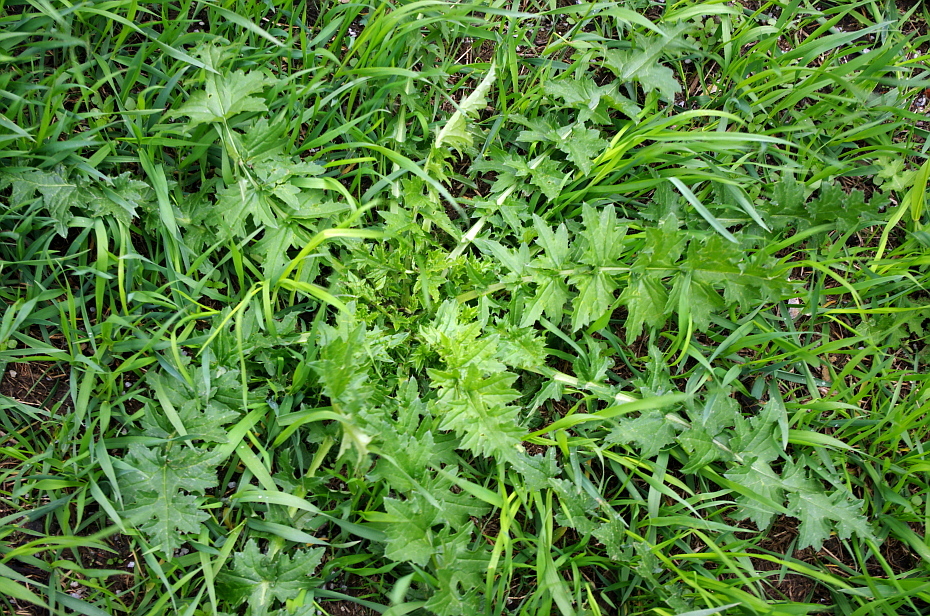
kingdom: Plantae
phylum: Tracheophyta
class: Magnoliopsida
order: Asterales
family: Asteraceae
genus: Carduus
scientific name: Carduus crispus
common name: Welted thistle
